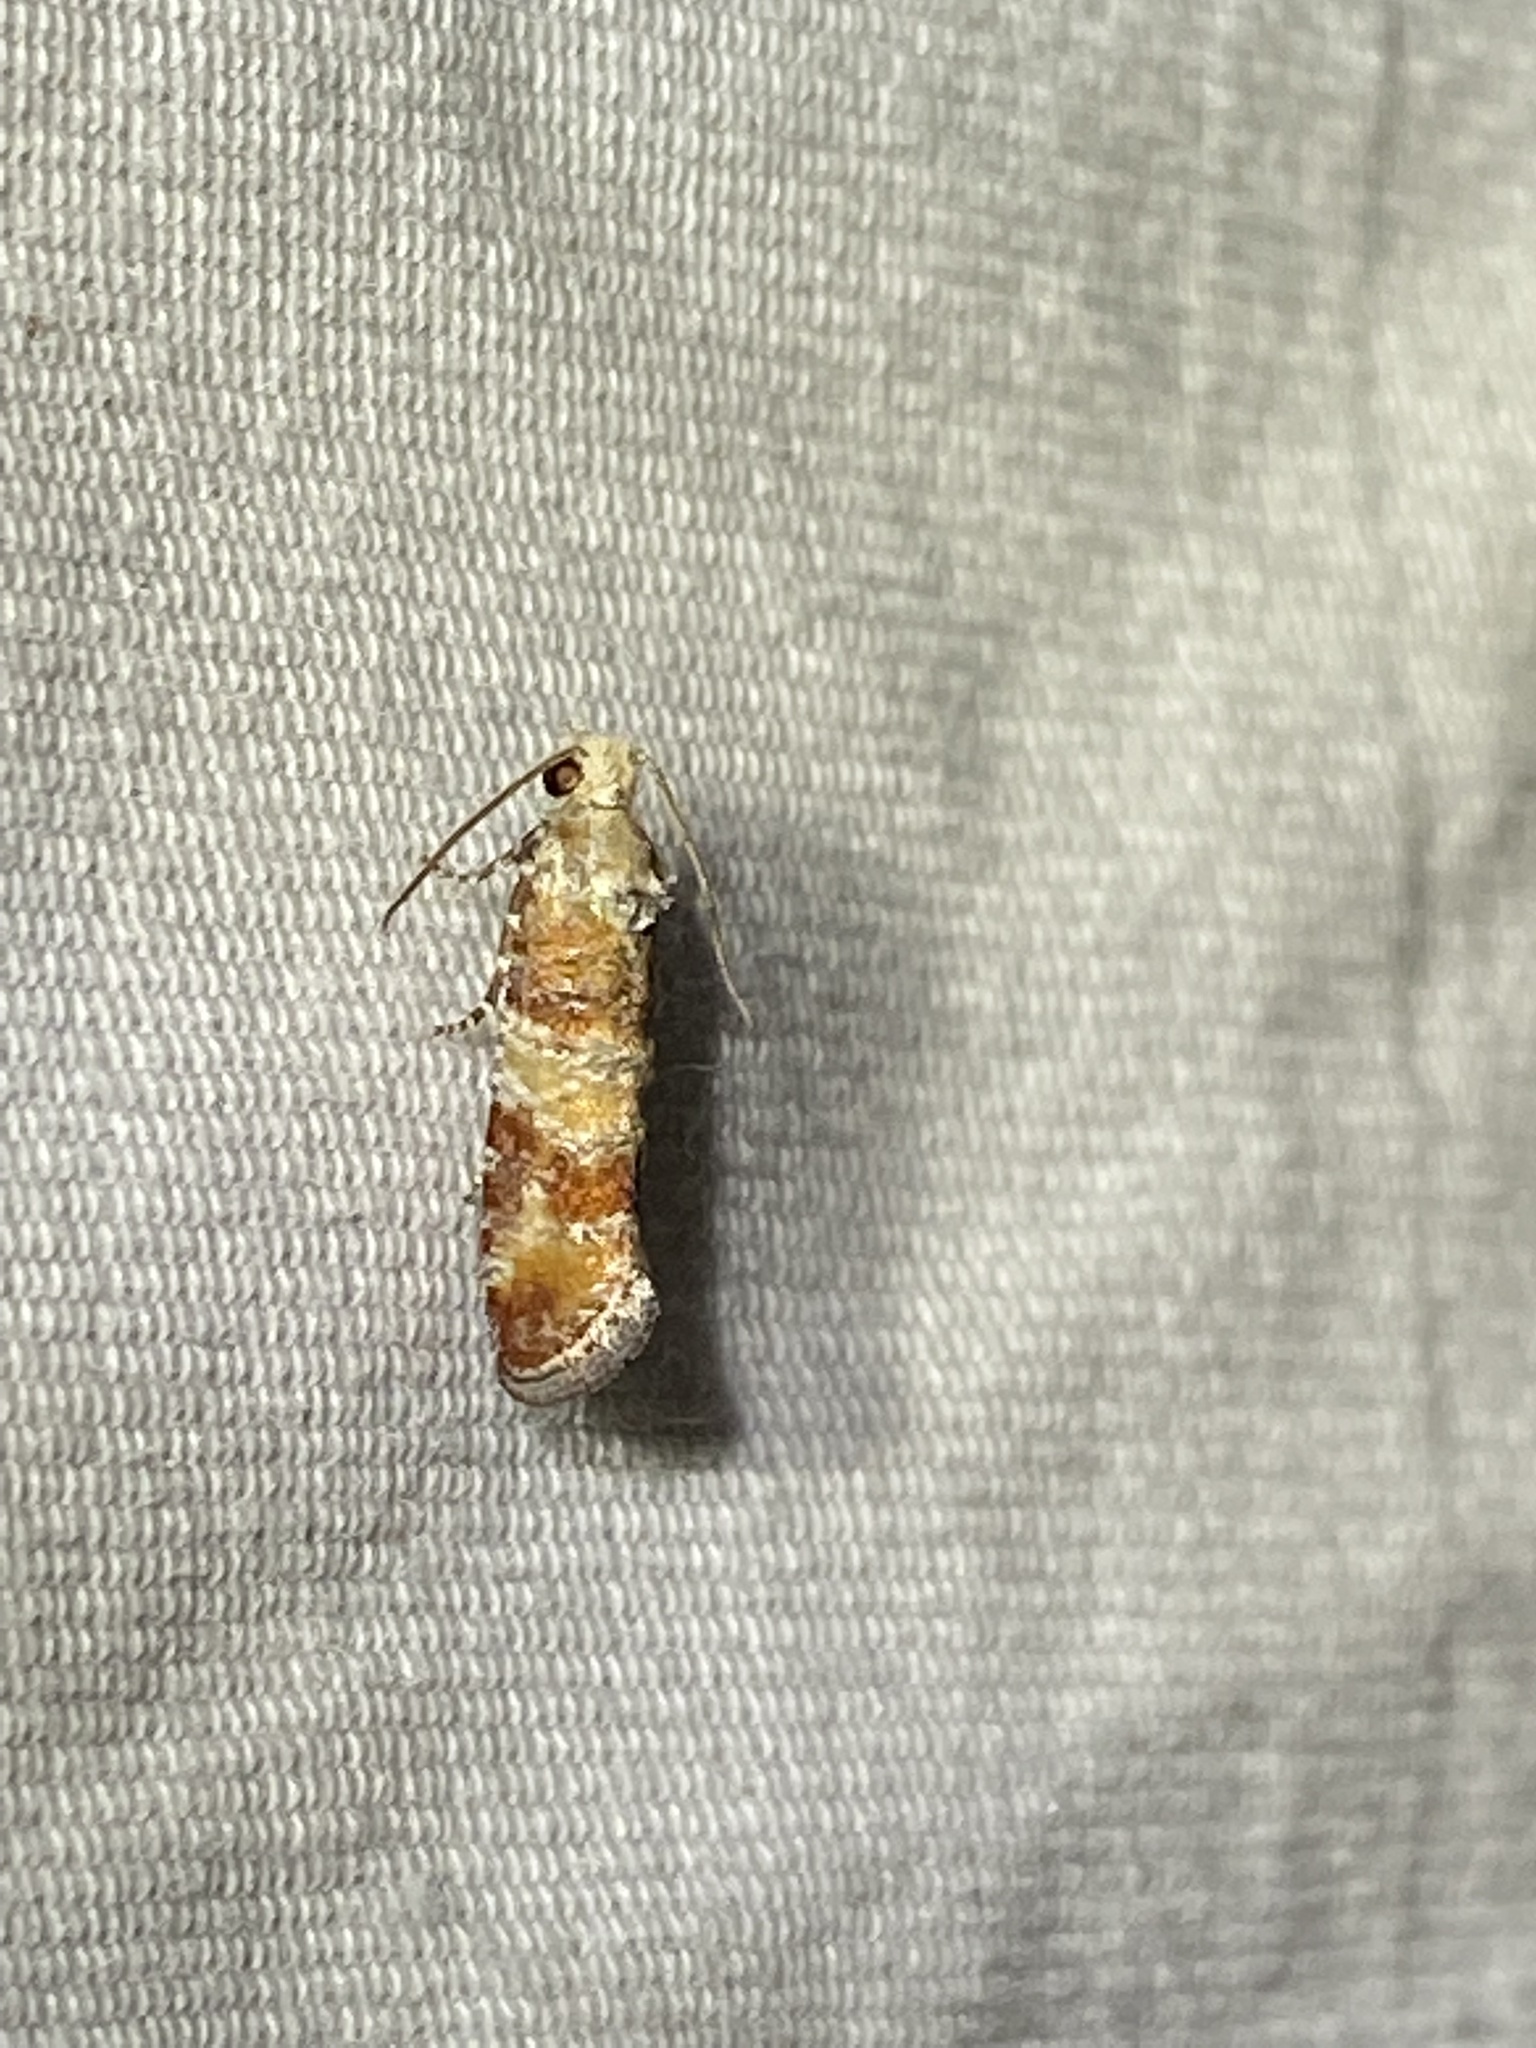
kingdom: Animalia
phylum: Arthropoda
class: Insecta
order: Lepidoptera
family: Tortricidae
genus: Rhyacionia
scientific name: Rhyacionia rigidana
